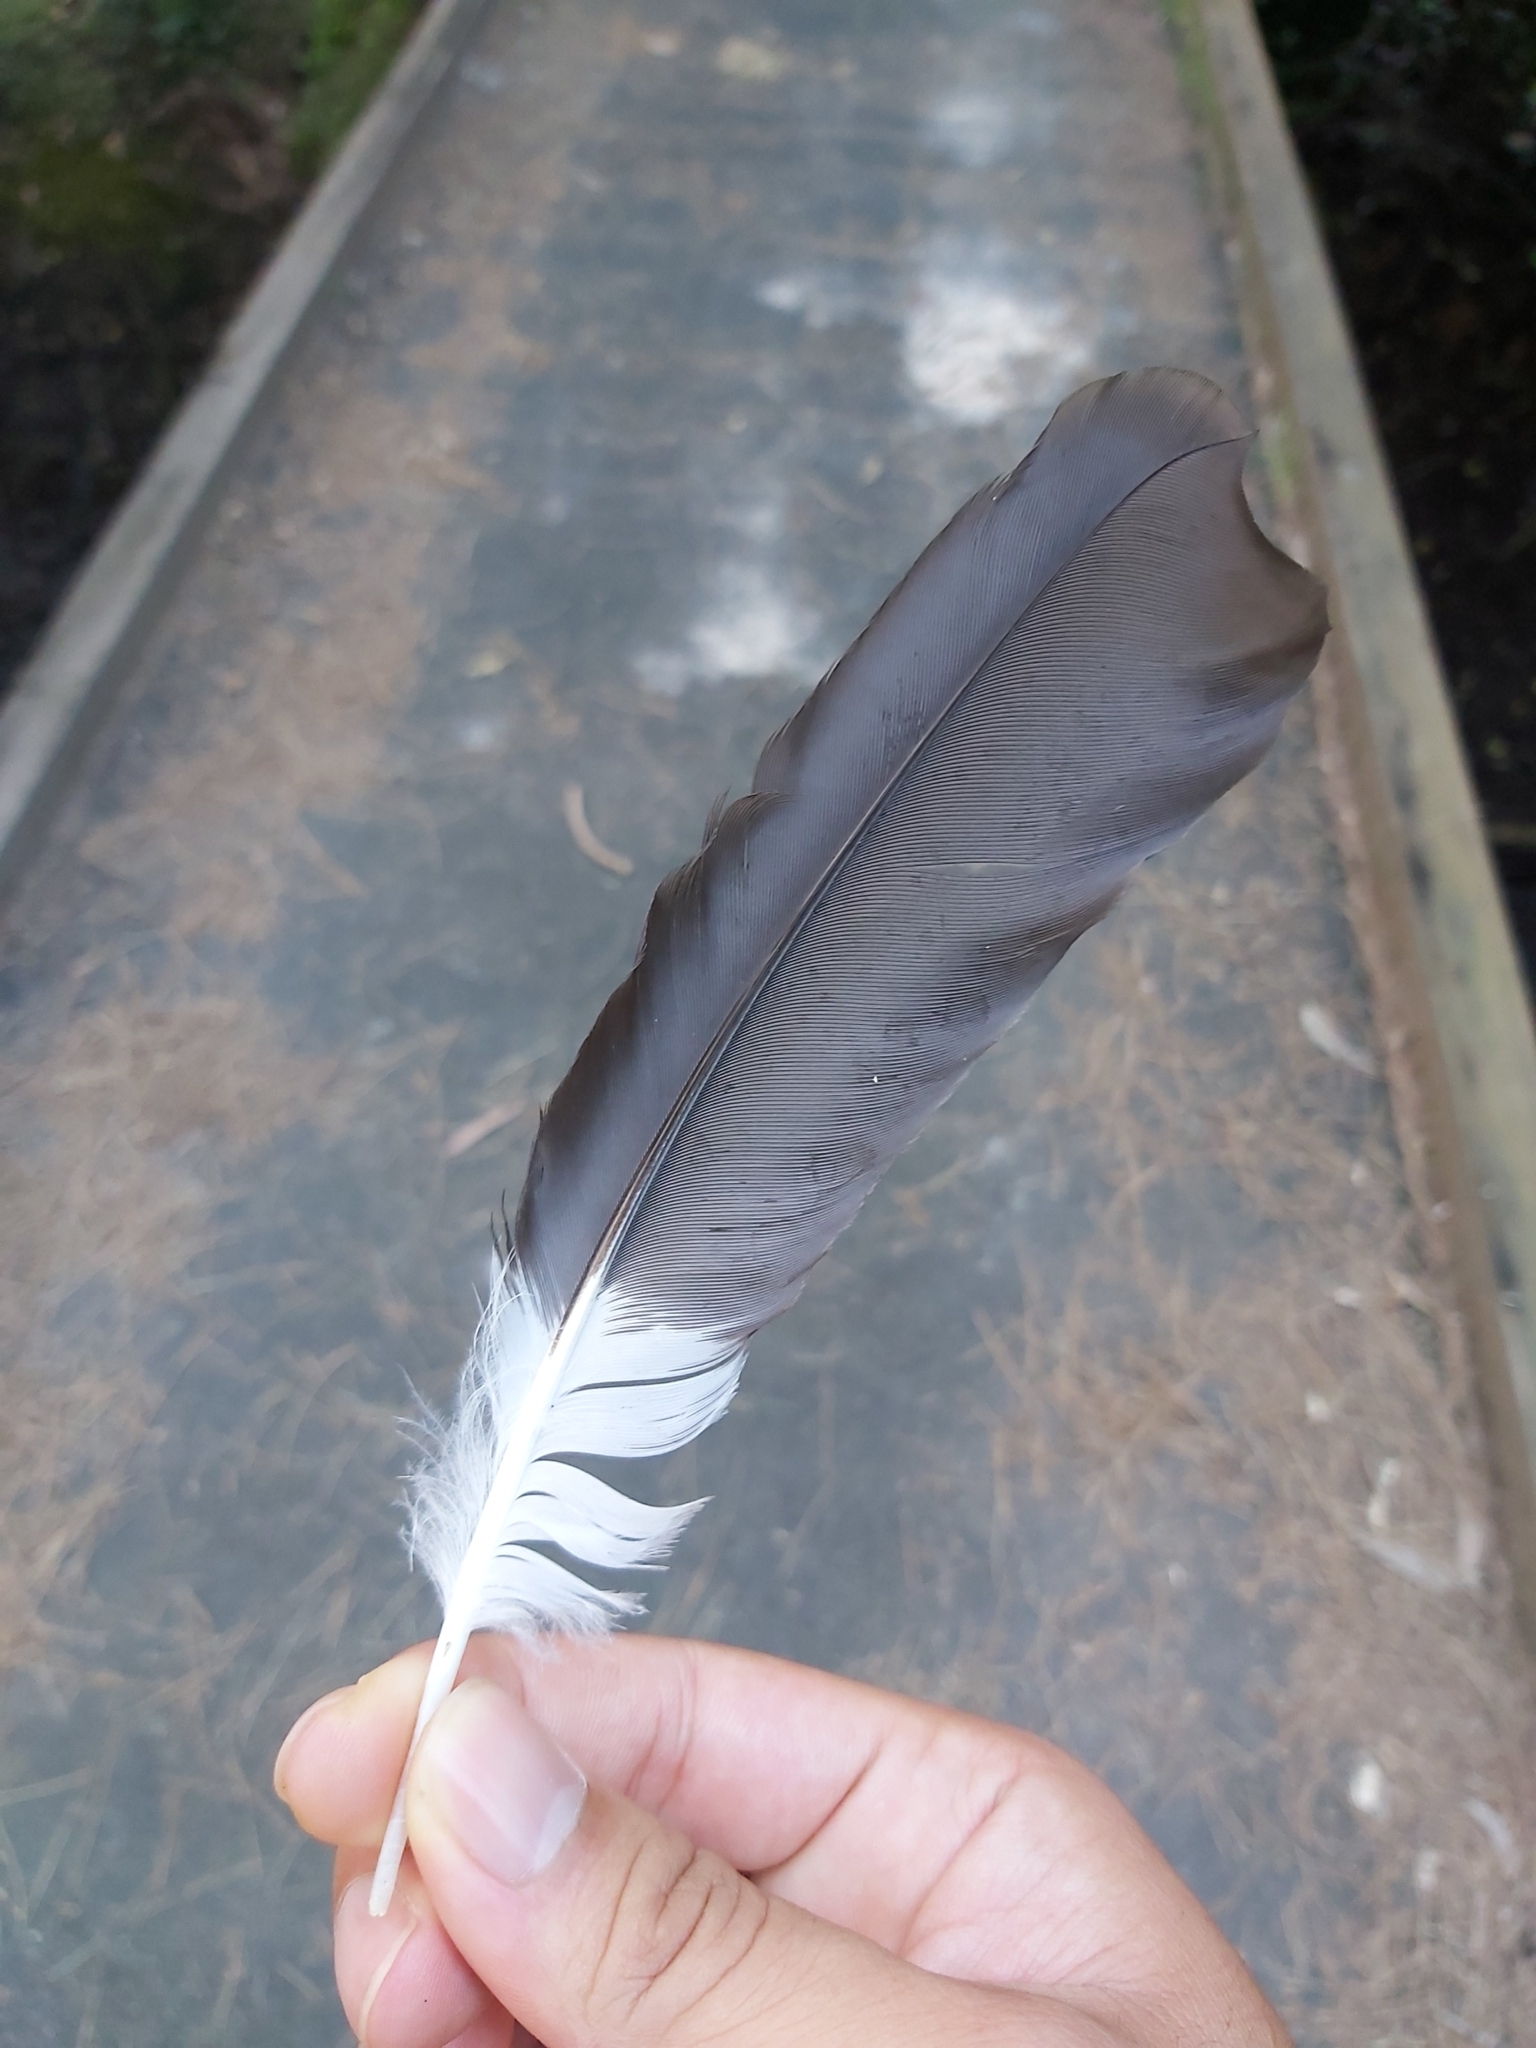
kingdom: Animalia
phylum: Chordata
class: Aves
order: Passeriformes
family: Cracticidae
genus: Strepera
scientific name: Strepera graculina
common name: Pied currawong
